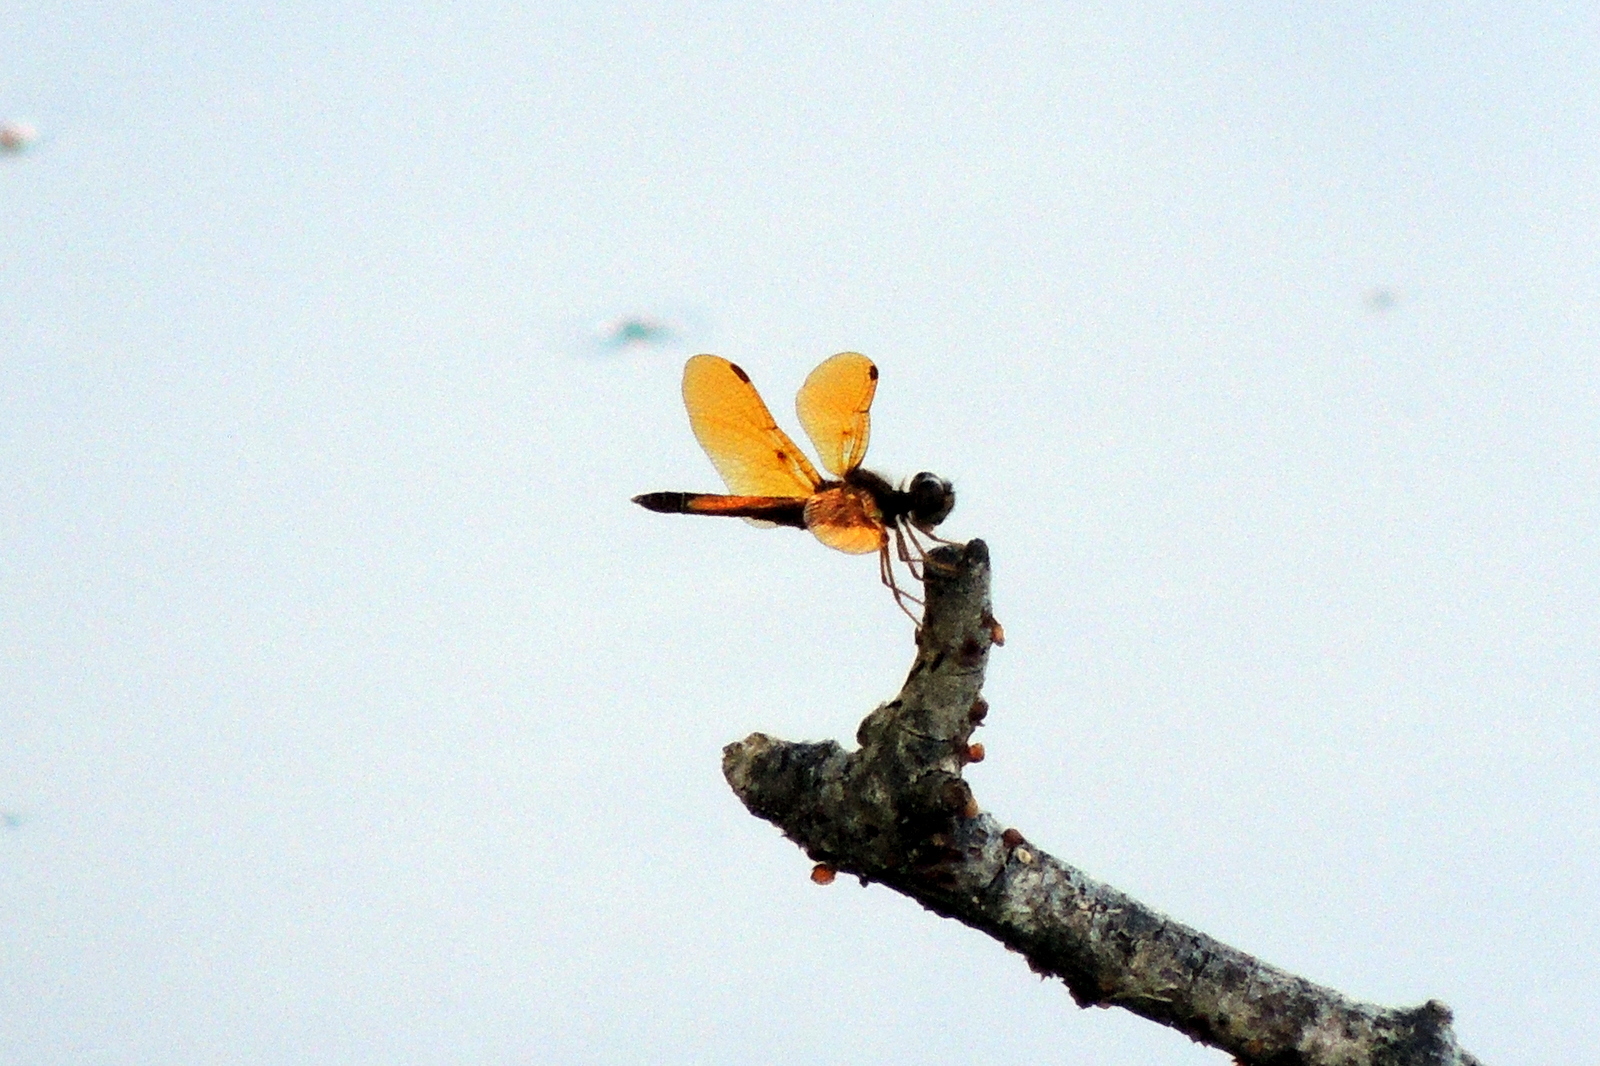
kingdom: Animalia
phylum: Arthropoda
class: Insecta
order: Odonata
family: Libellulidae
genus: Perithemis
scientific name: Perithemis tenera
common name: Eastern amberwing
